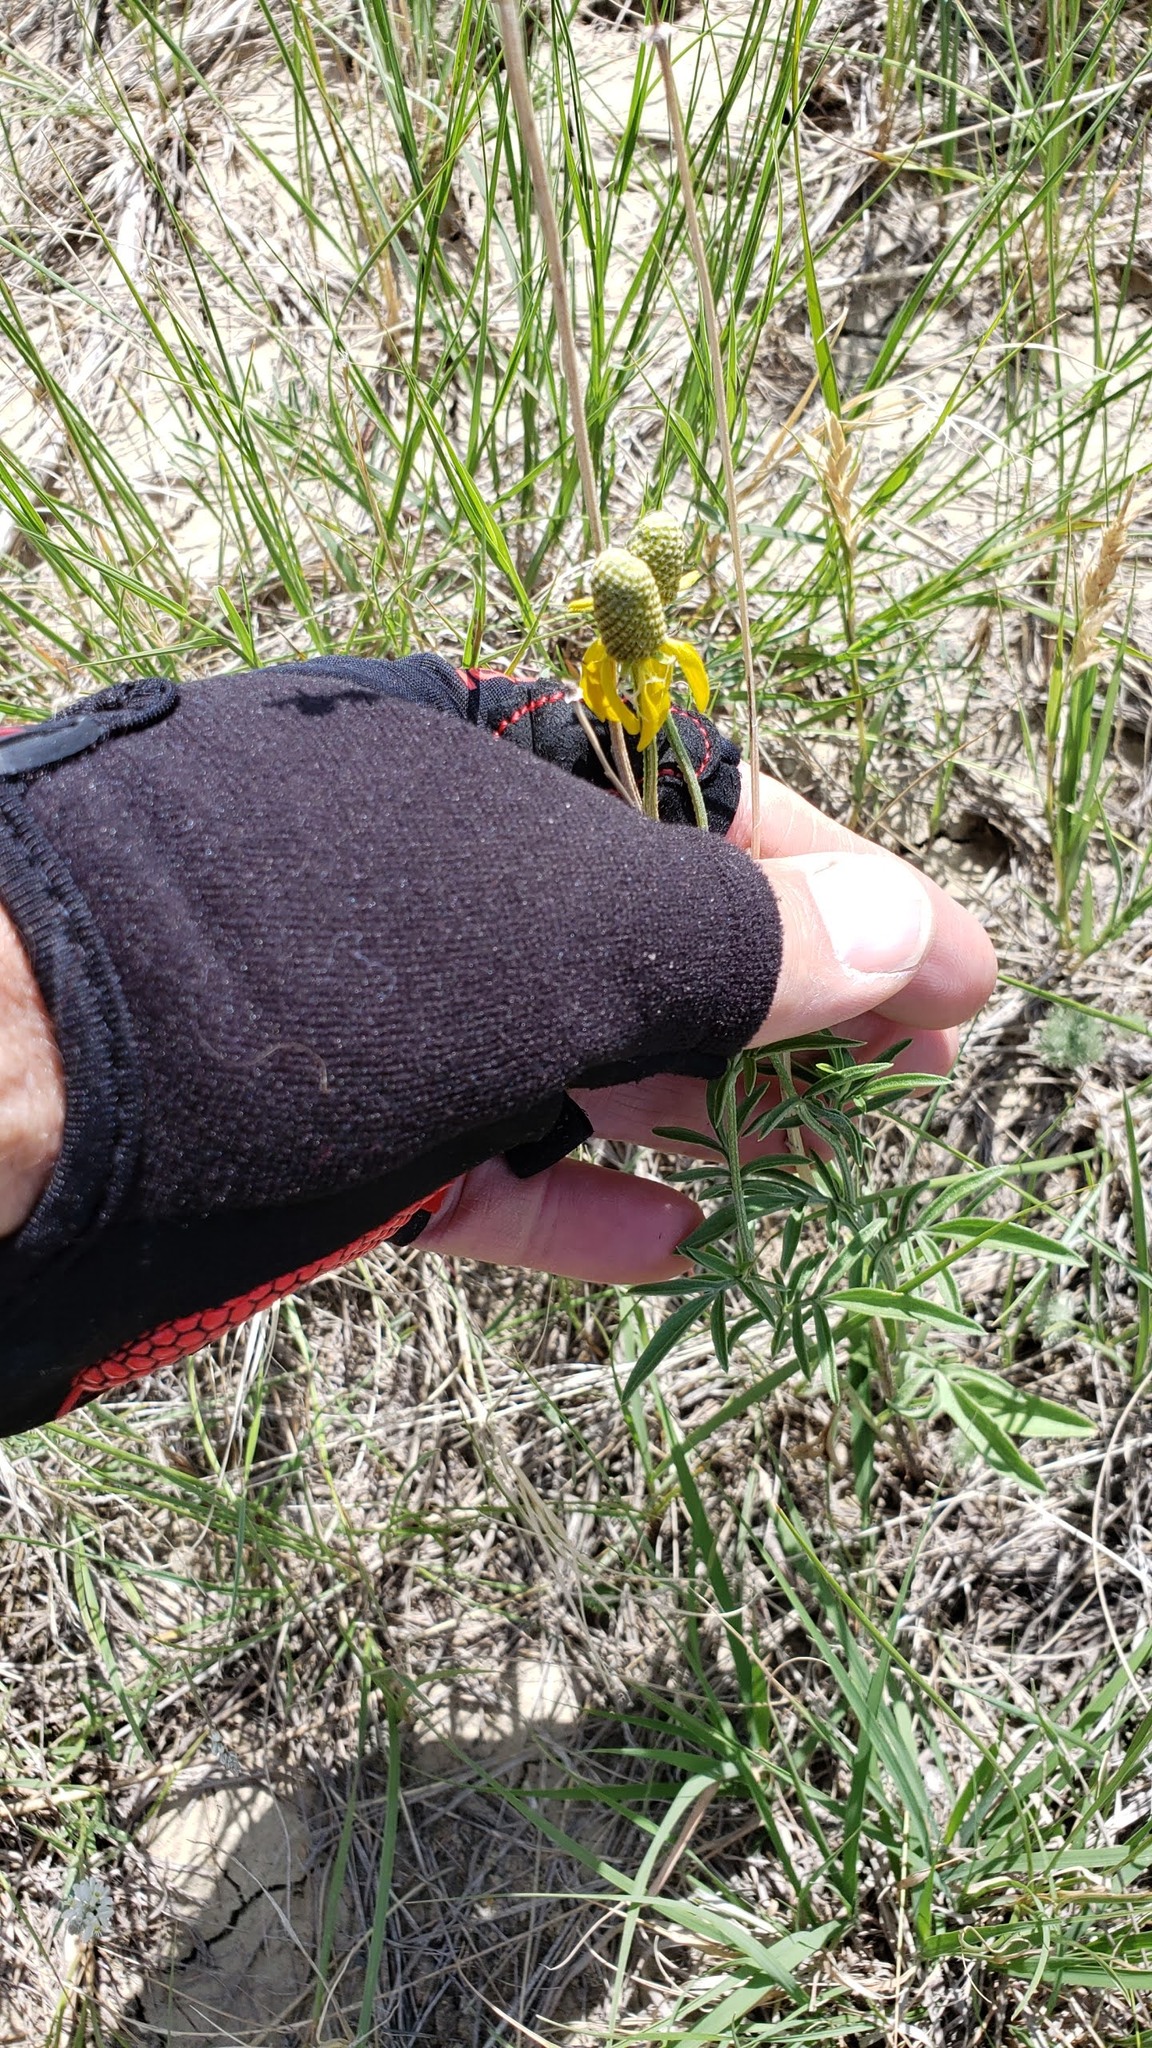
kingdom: Plantae
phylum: Tracheophyta
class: Magnoliopsida
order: Asterales
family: Asteraceae
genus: Ratibida
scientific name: Ratibida columnifera
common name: Prairie coneflower
